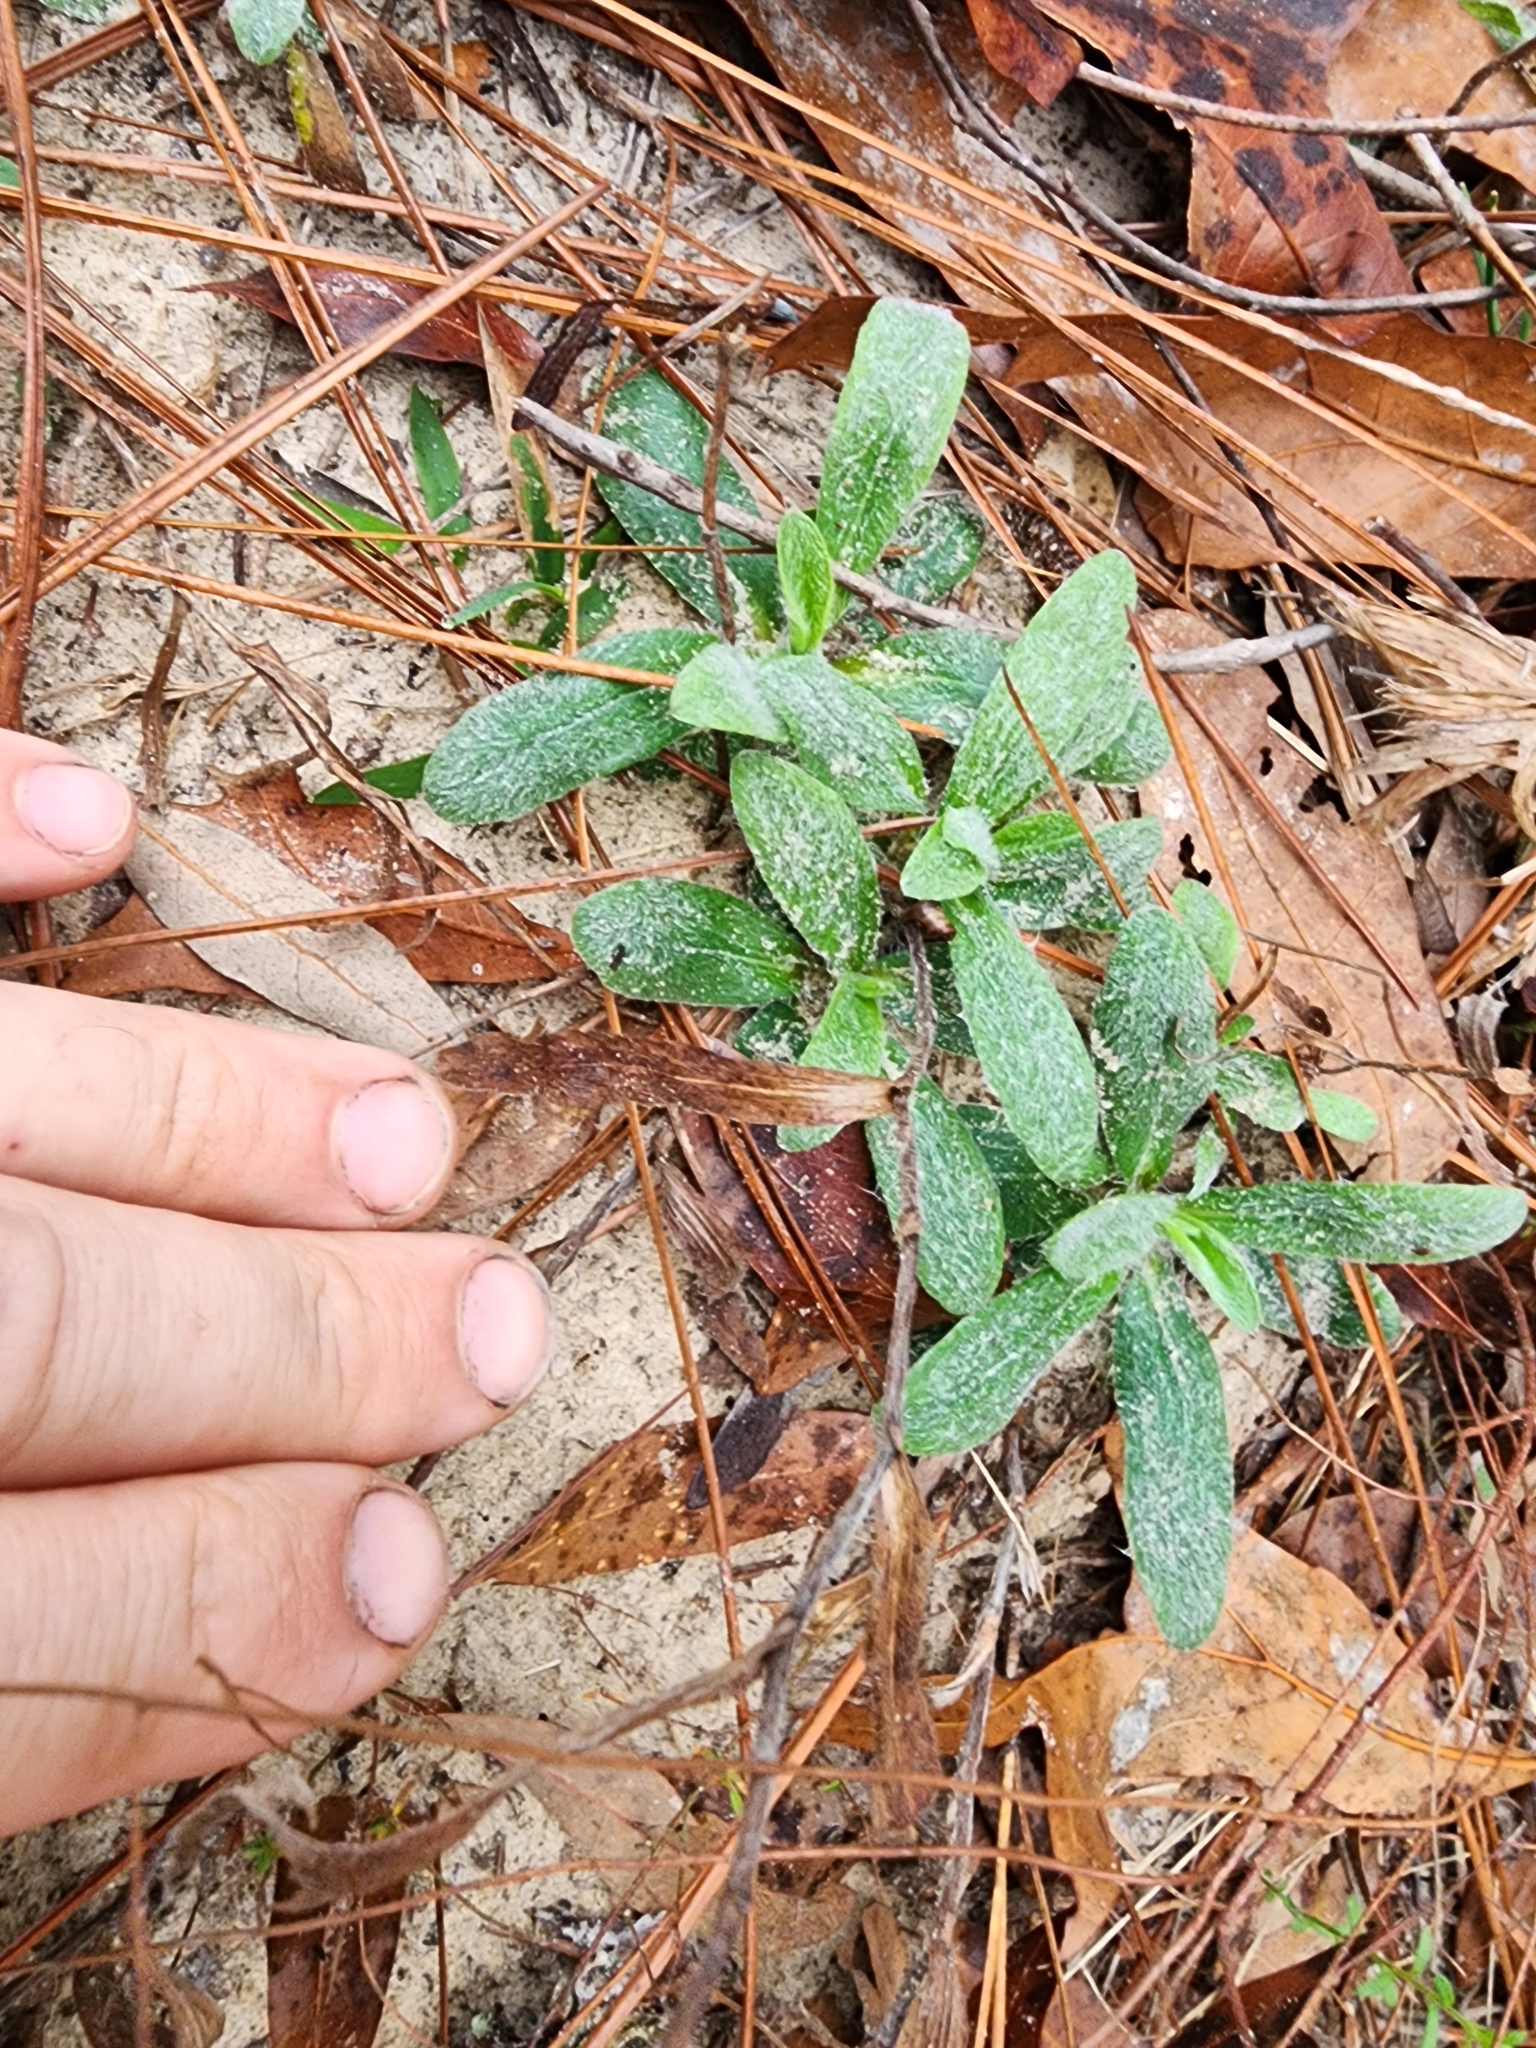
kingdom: Plantae
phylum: Tracheophyta
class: Magnoliopsida
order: Asterales
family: Asteraceae
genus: Pityopsis
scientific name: Pityopsis flexuosa
